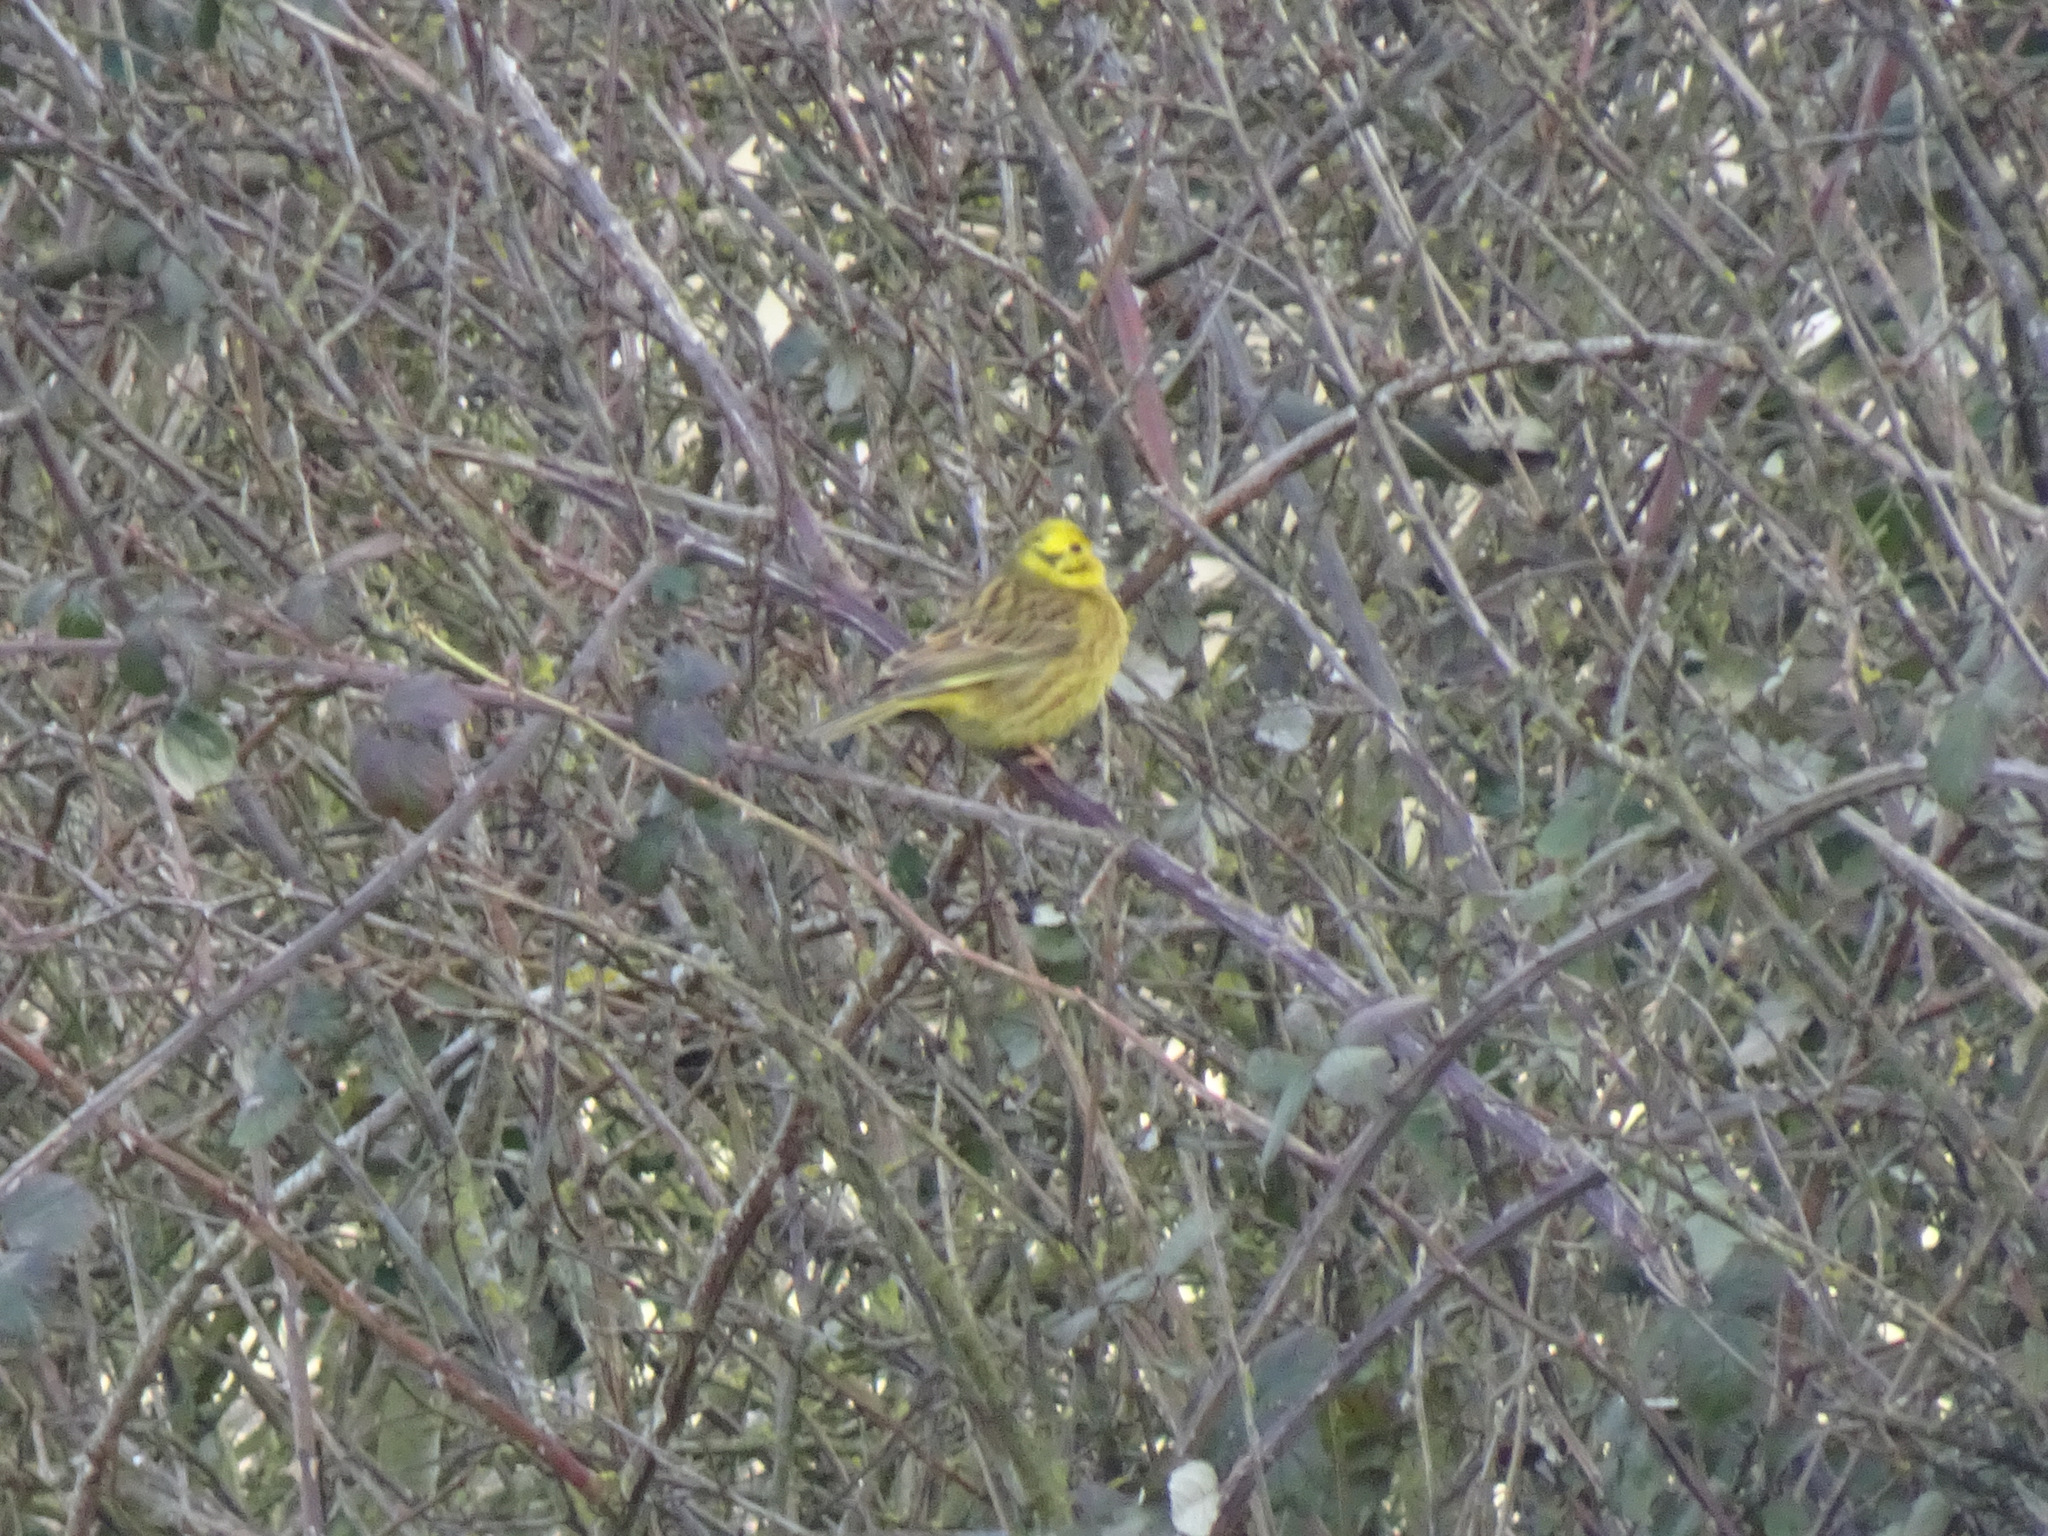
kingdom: Animalia
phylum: Chordata
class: Aves
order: Passeriformes
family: Emberizidae
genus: Emberiza
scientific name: Emberiza citrinella
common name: Yellowhammer
